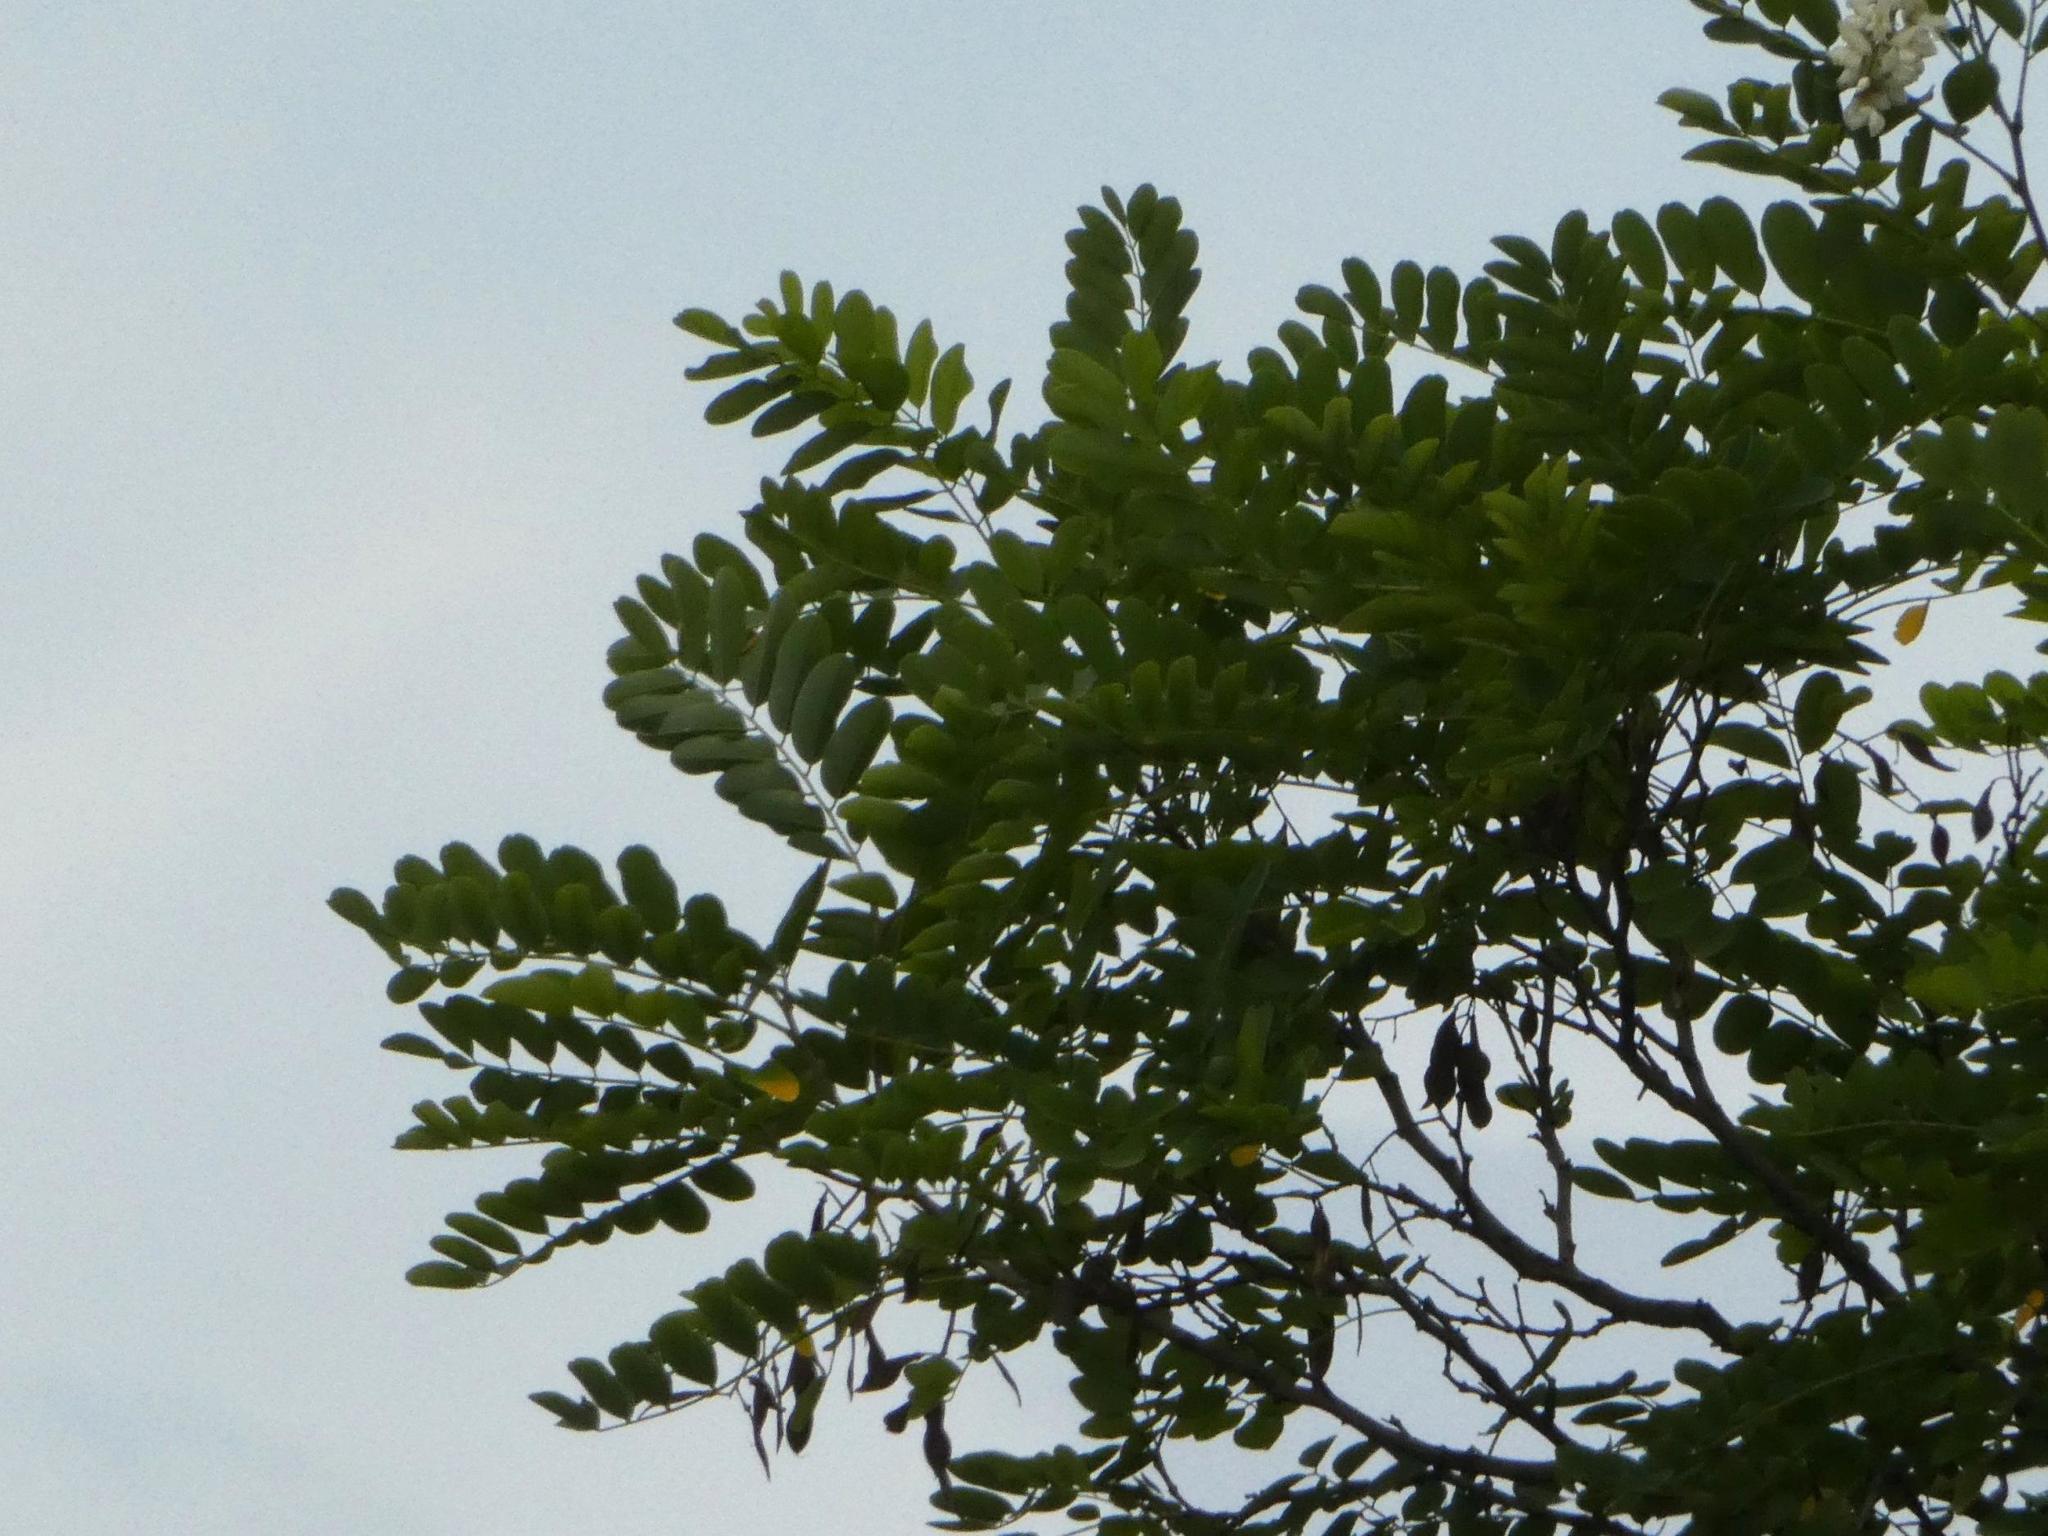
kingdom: Plantae
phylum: Tracheophyta
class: Magnoliopsida
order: Fabales
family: Fabaceae
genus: Robinia
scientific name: Robinia pseudoacacia
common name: Black locust
